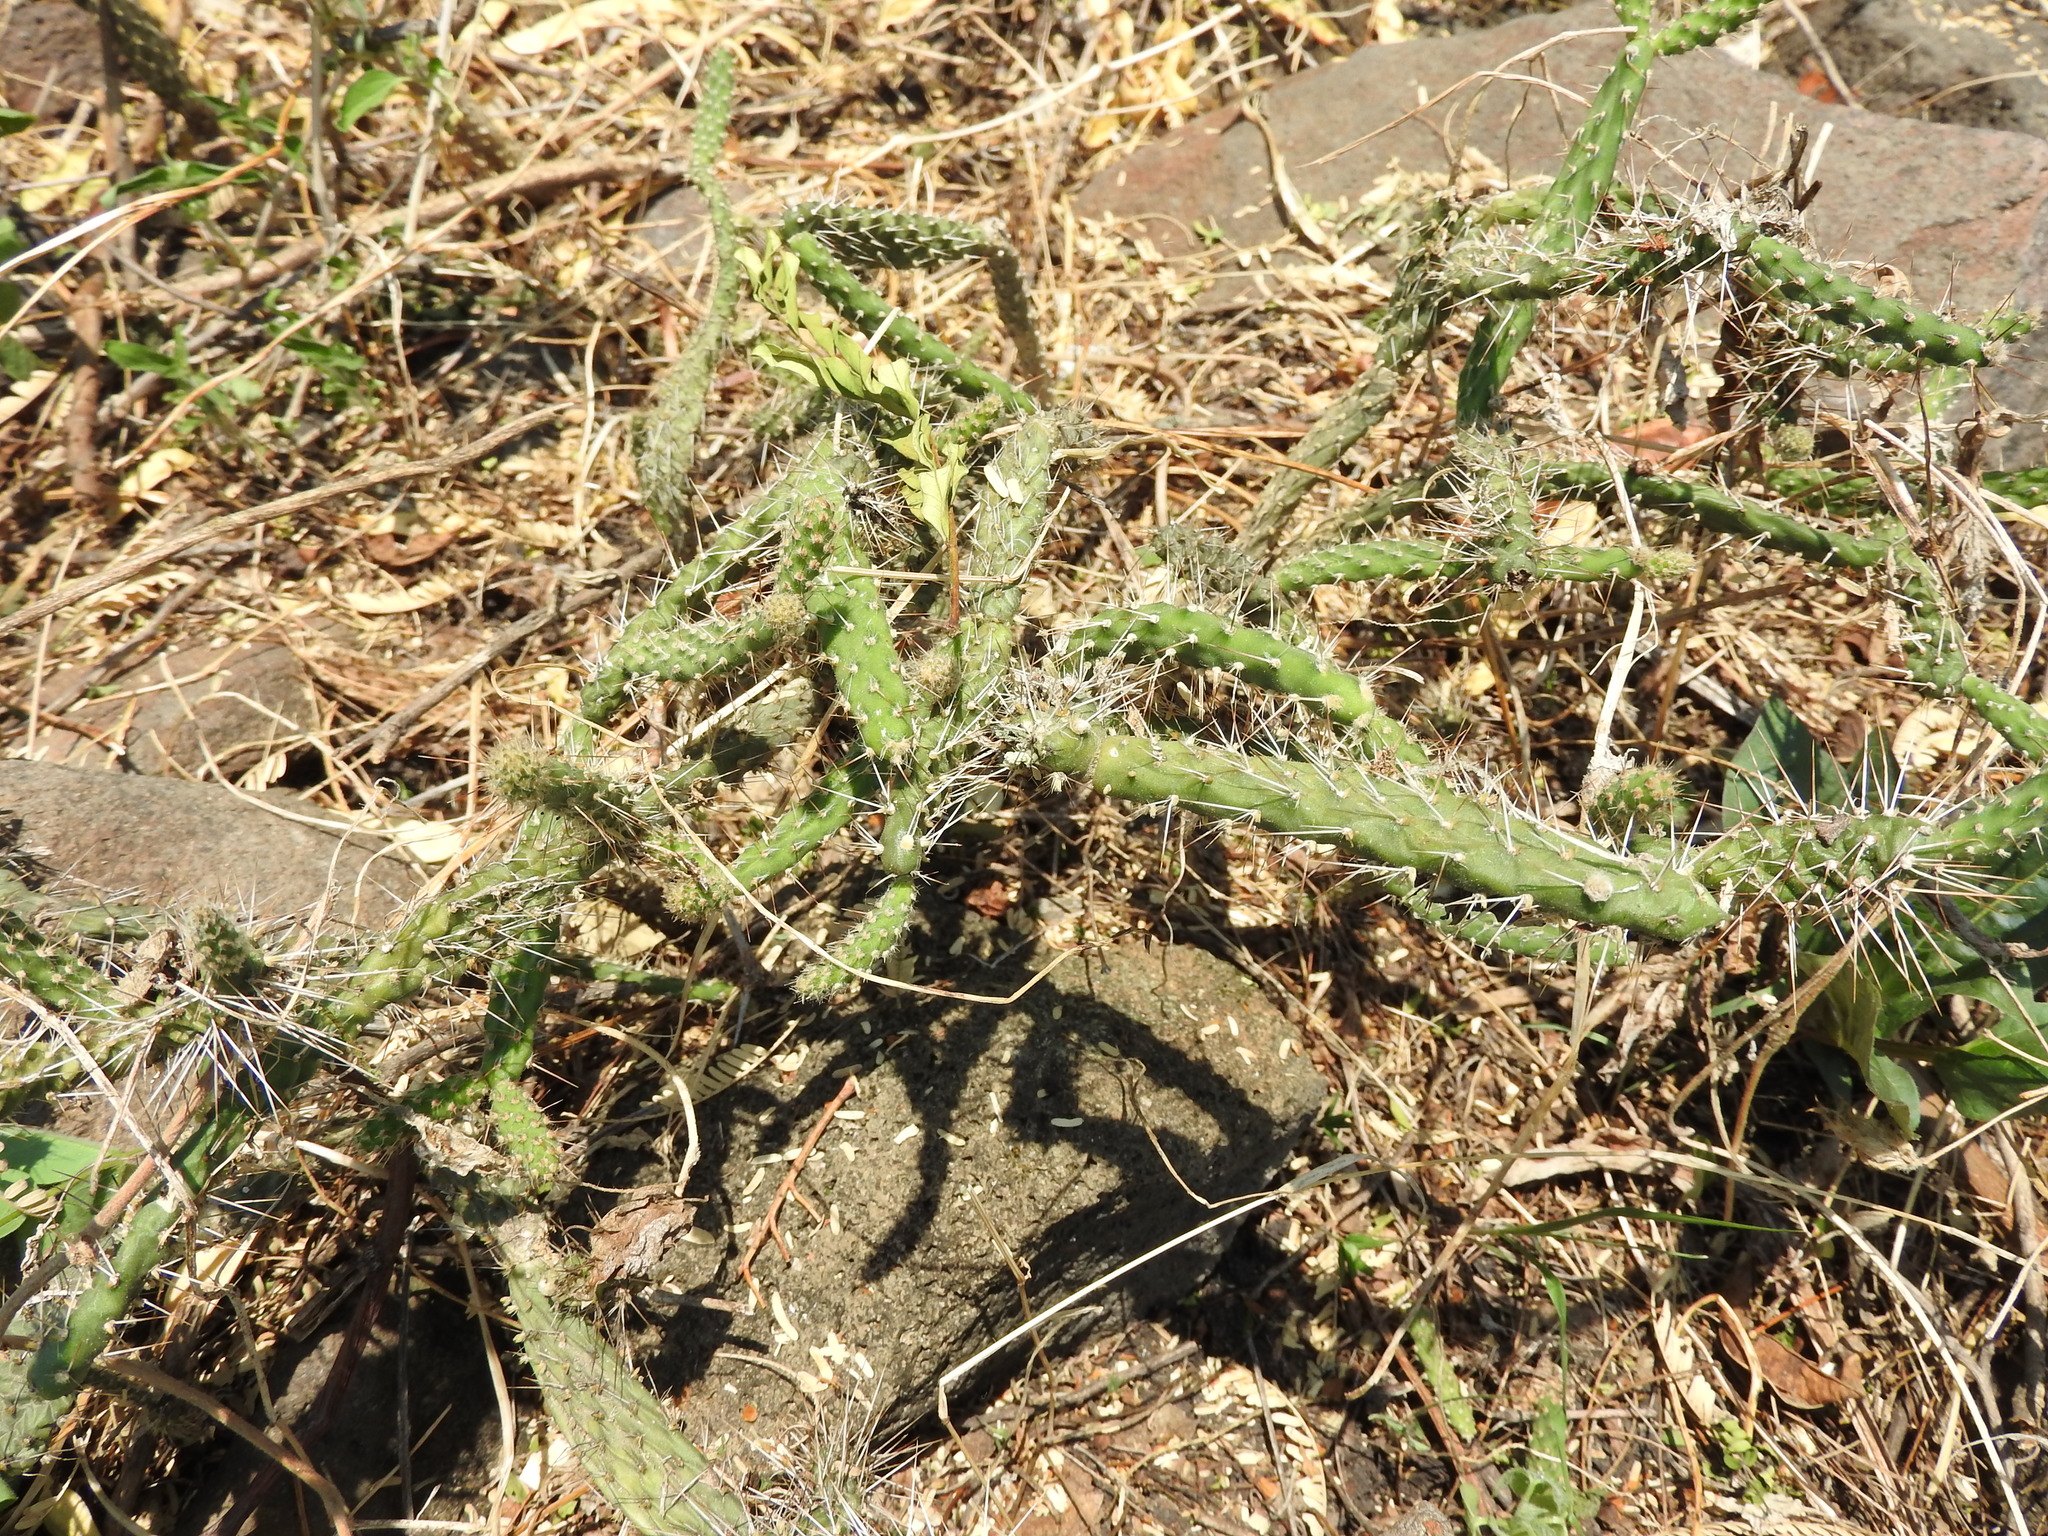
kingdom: Plantae
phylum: Tracheophyta
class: Magnoliopsida
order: Caryophyllales
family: Cactaceae
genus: Opuntia
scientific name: Opuntia pubescens
